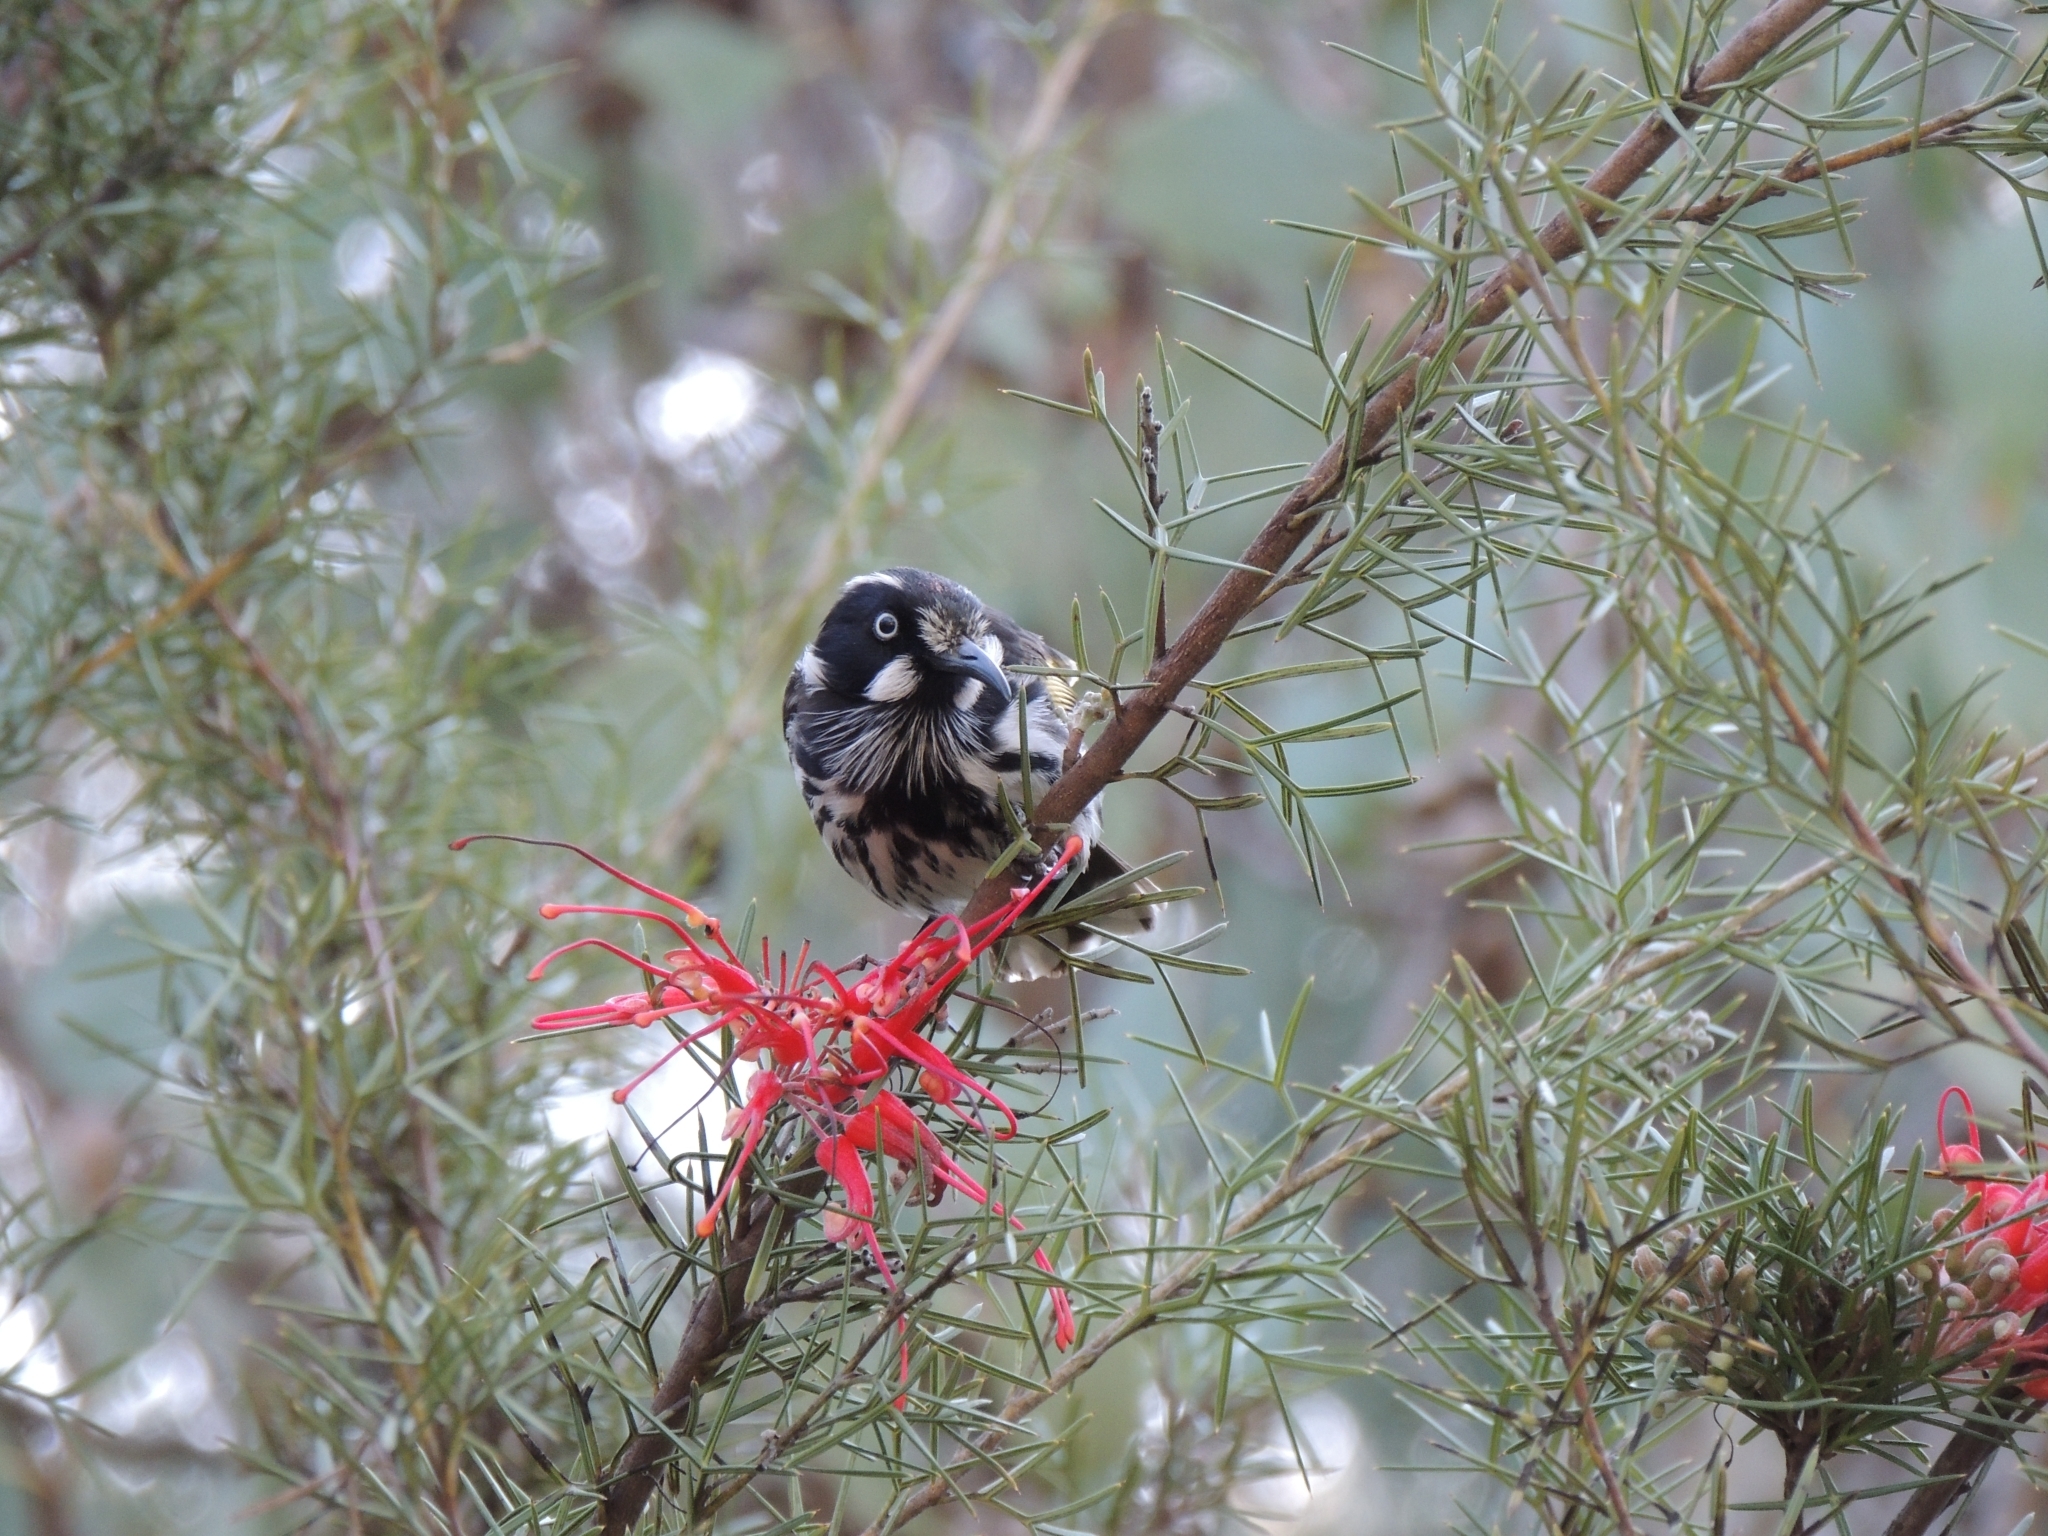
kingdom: Animalia
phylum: Chordata
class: Aves
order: Passeriformes
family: Meliphagidae
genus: Phylidonyris
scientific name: Phylidonyris novaehollandiae
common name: New holland honeyeater
